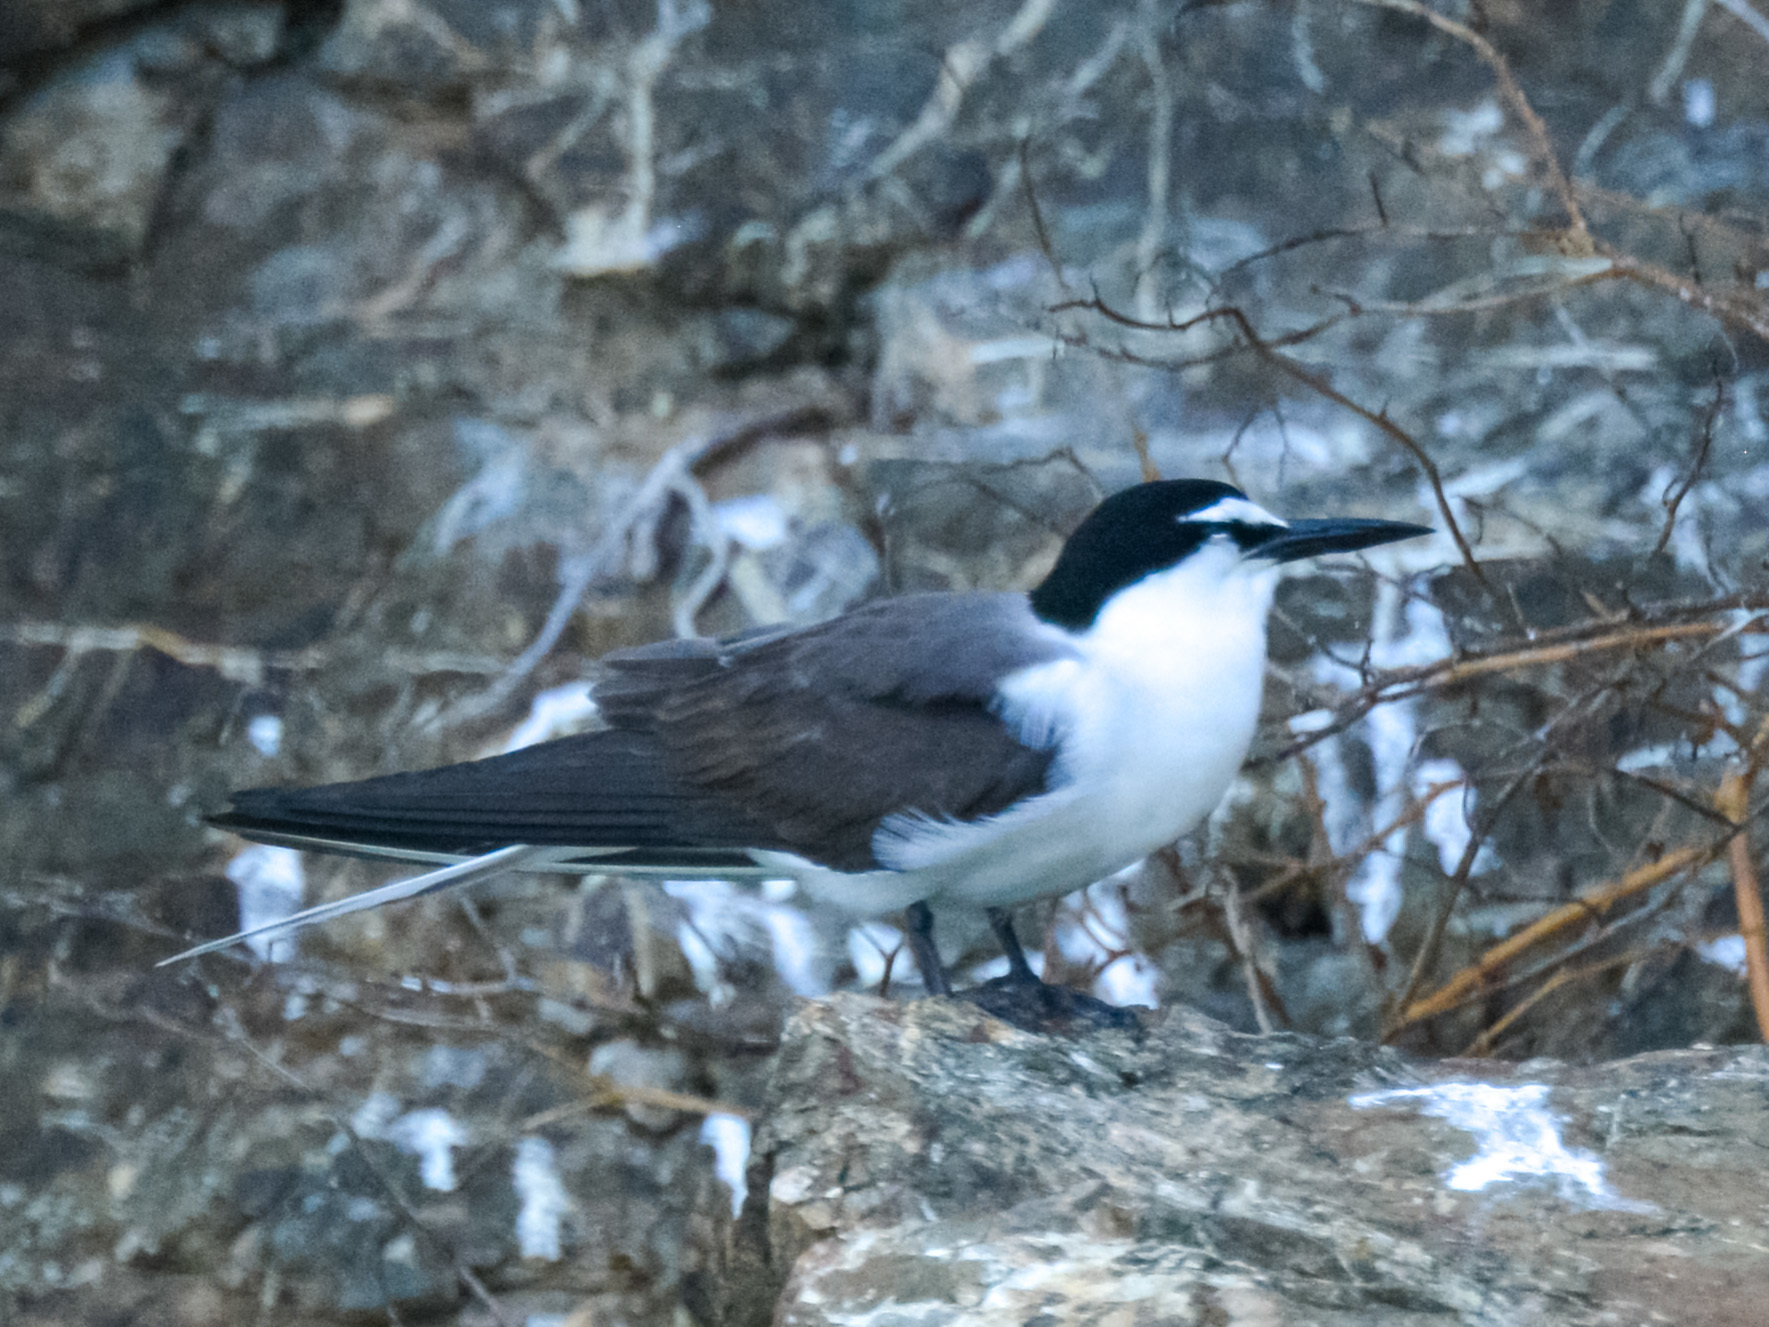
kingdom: Animalia
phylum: Chordata
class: Aves
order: Charadriiformes
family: Laridae
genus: Onychoprion
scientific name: Onychoprion anaethetus
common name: Bridled tern
